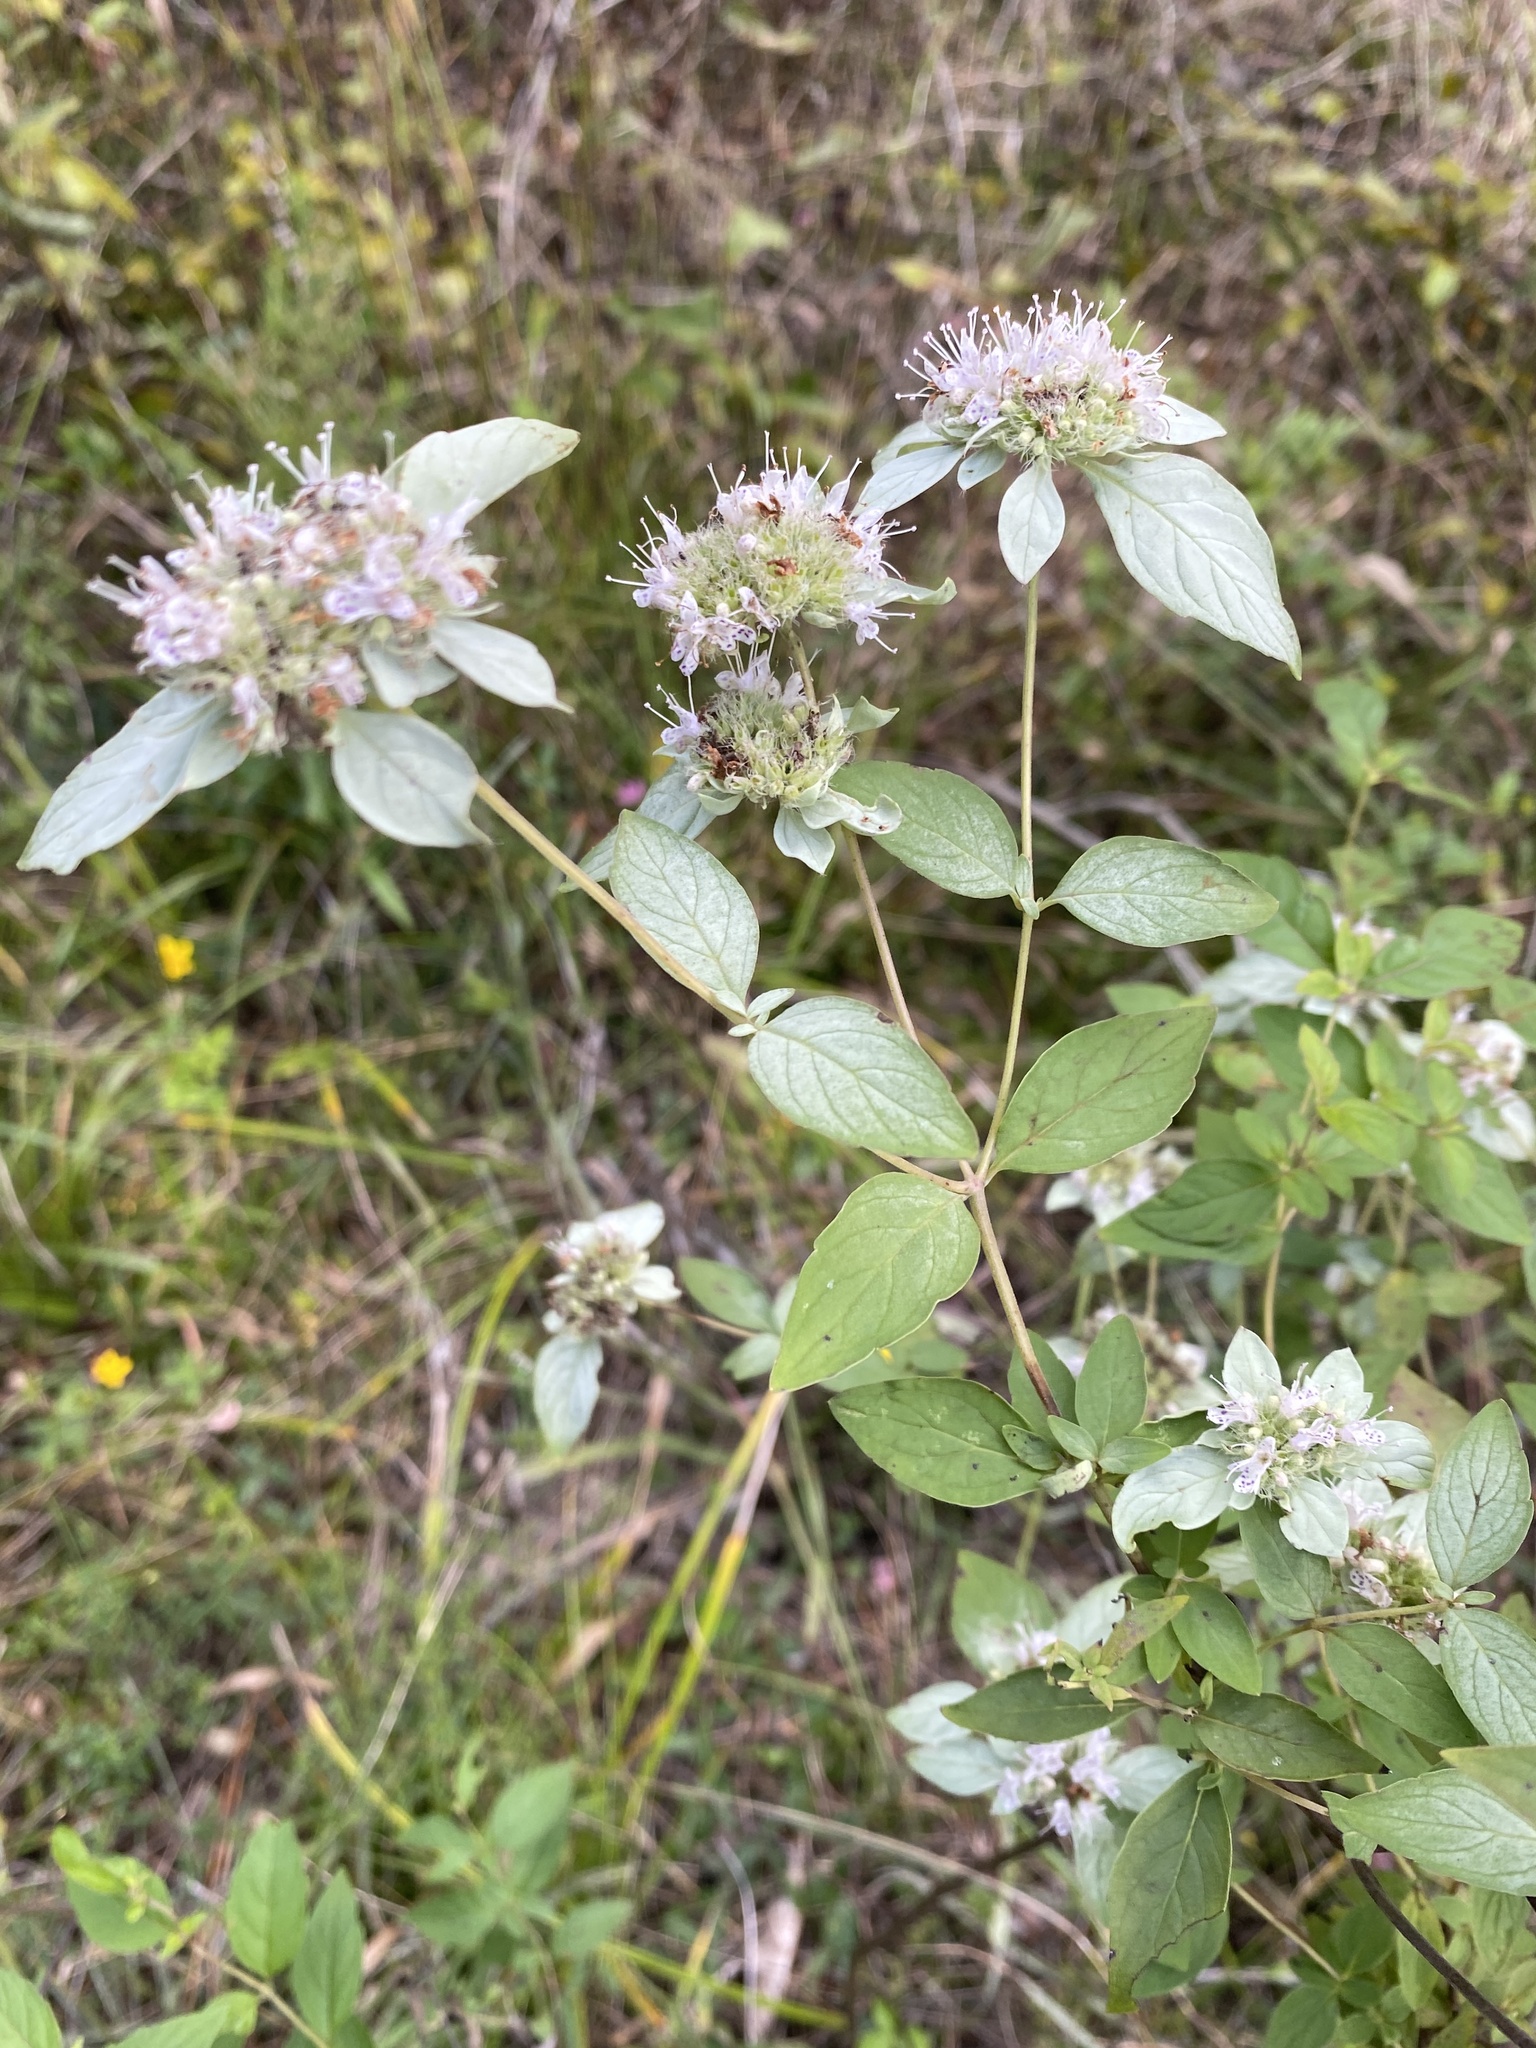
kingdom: Plantae
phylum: Tracheophyta
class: Magnoliopsida
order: Lamiales
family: Lamiaceae
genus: Pycnanthemum
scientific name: Pycnanthemum muticum
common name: Blunt mountain-mint
